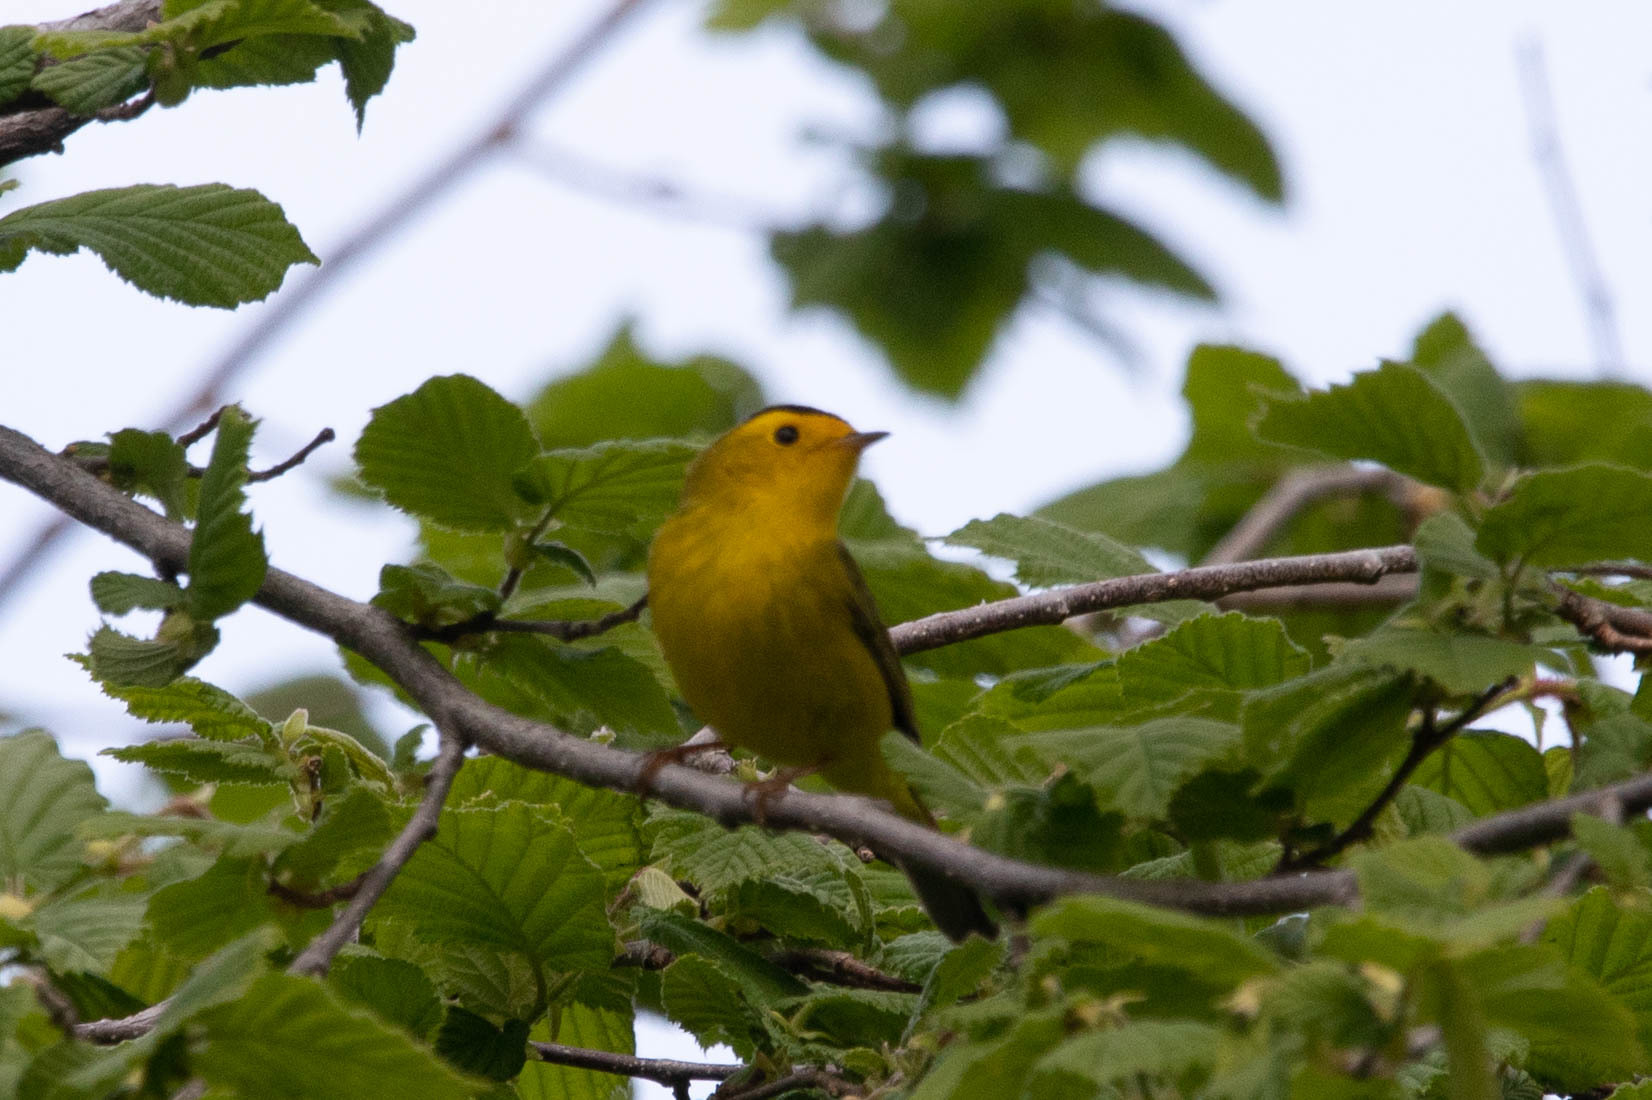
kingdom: Animalia
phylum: Chordata
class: Aves
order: Passeriformes
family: Parulidae
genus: Cardellina
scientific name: Cardellina pusilla
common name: Wilson's warbler
